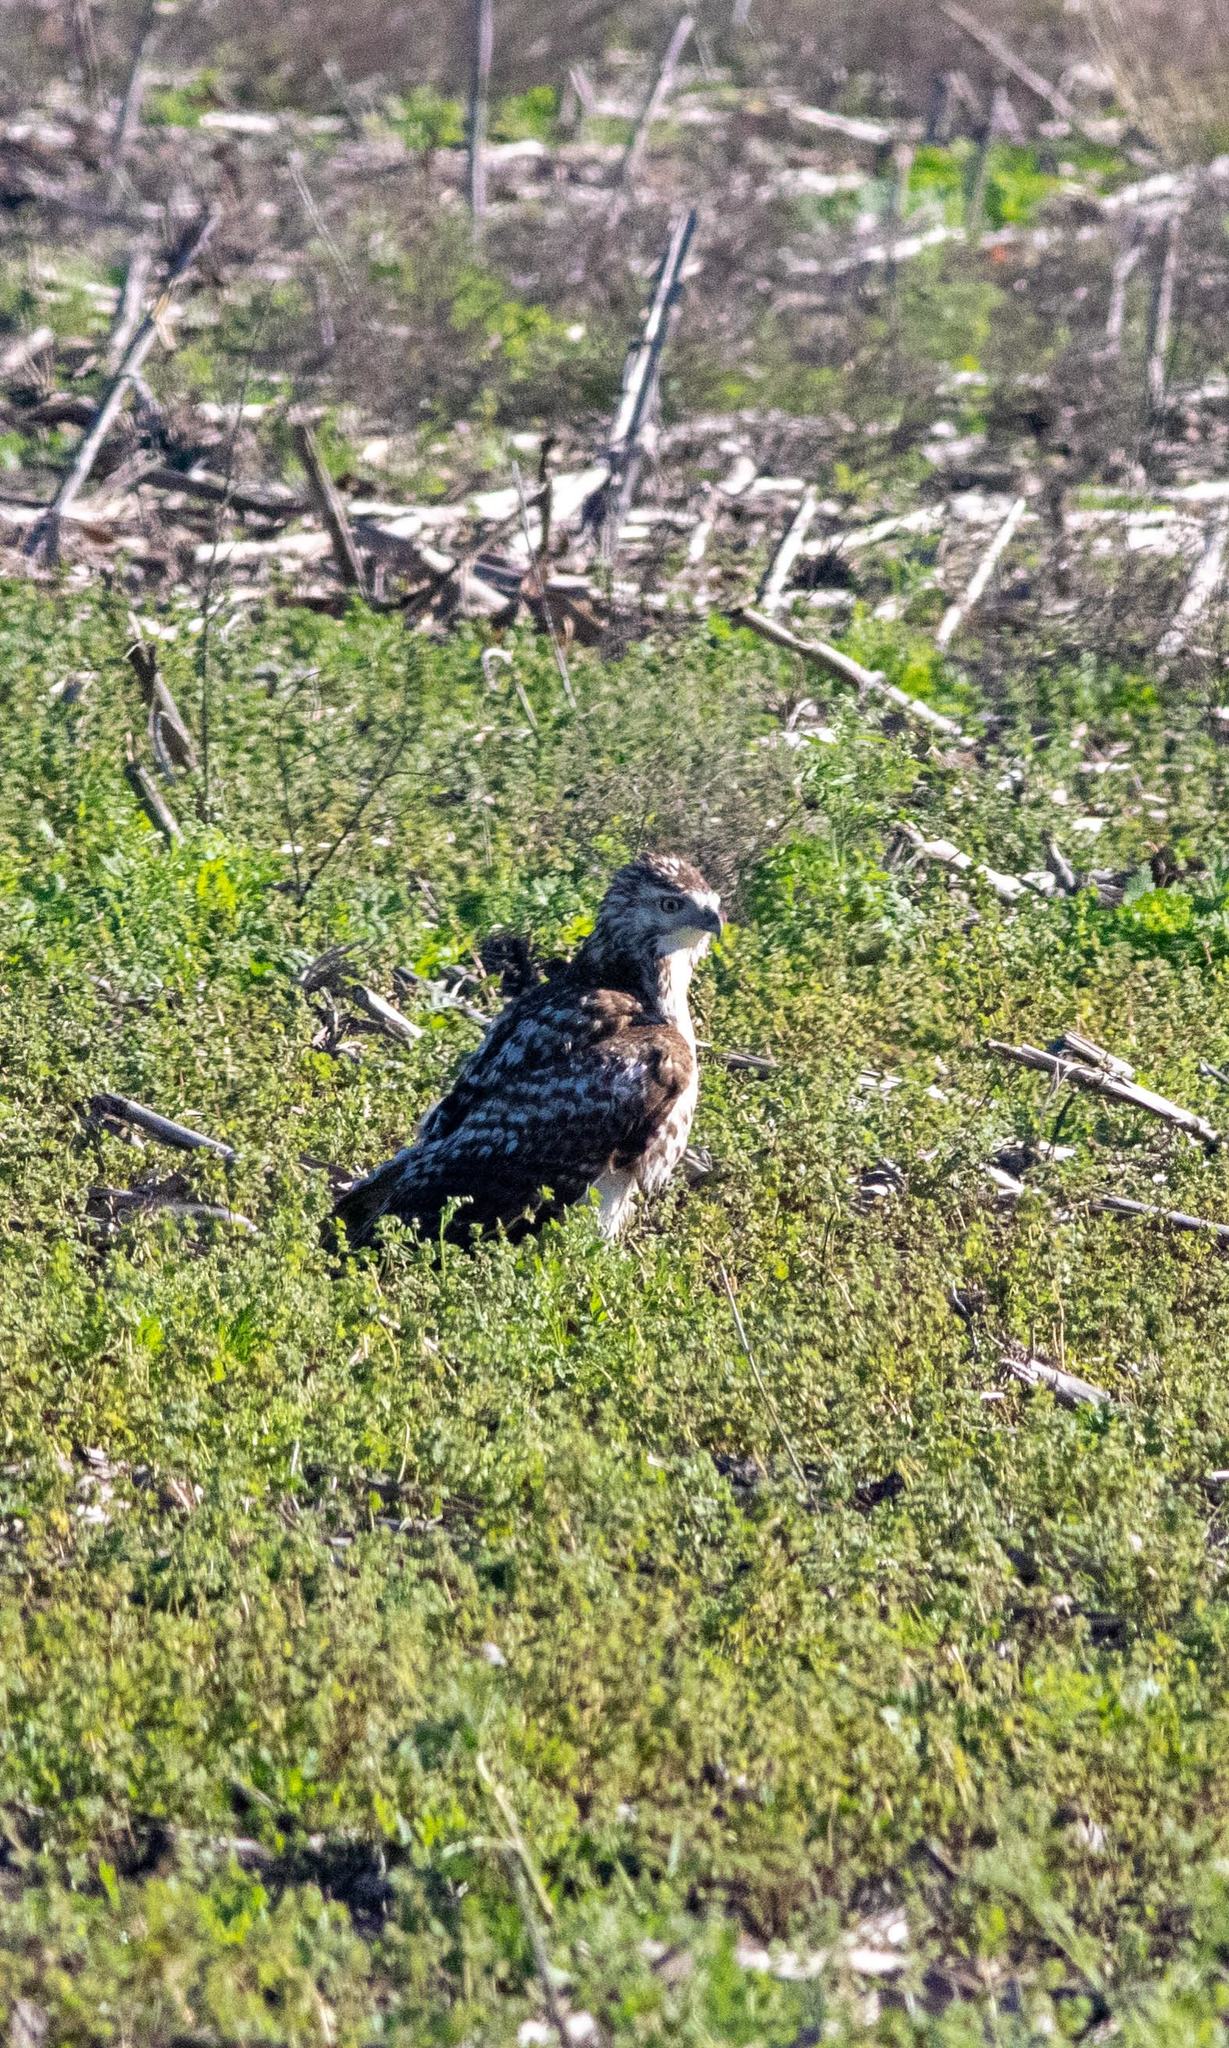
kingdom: Animalia
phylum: Chordata
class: Aves
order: Accipitriformes
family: Accipitridae
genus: Buteo
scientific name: Buteo jamaicensis
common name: Red-tailed hawk
